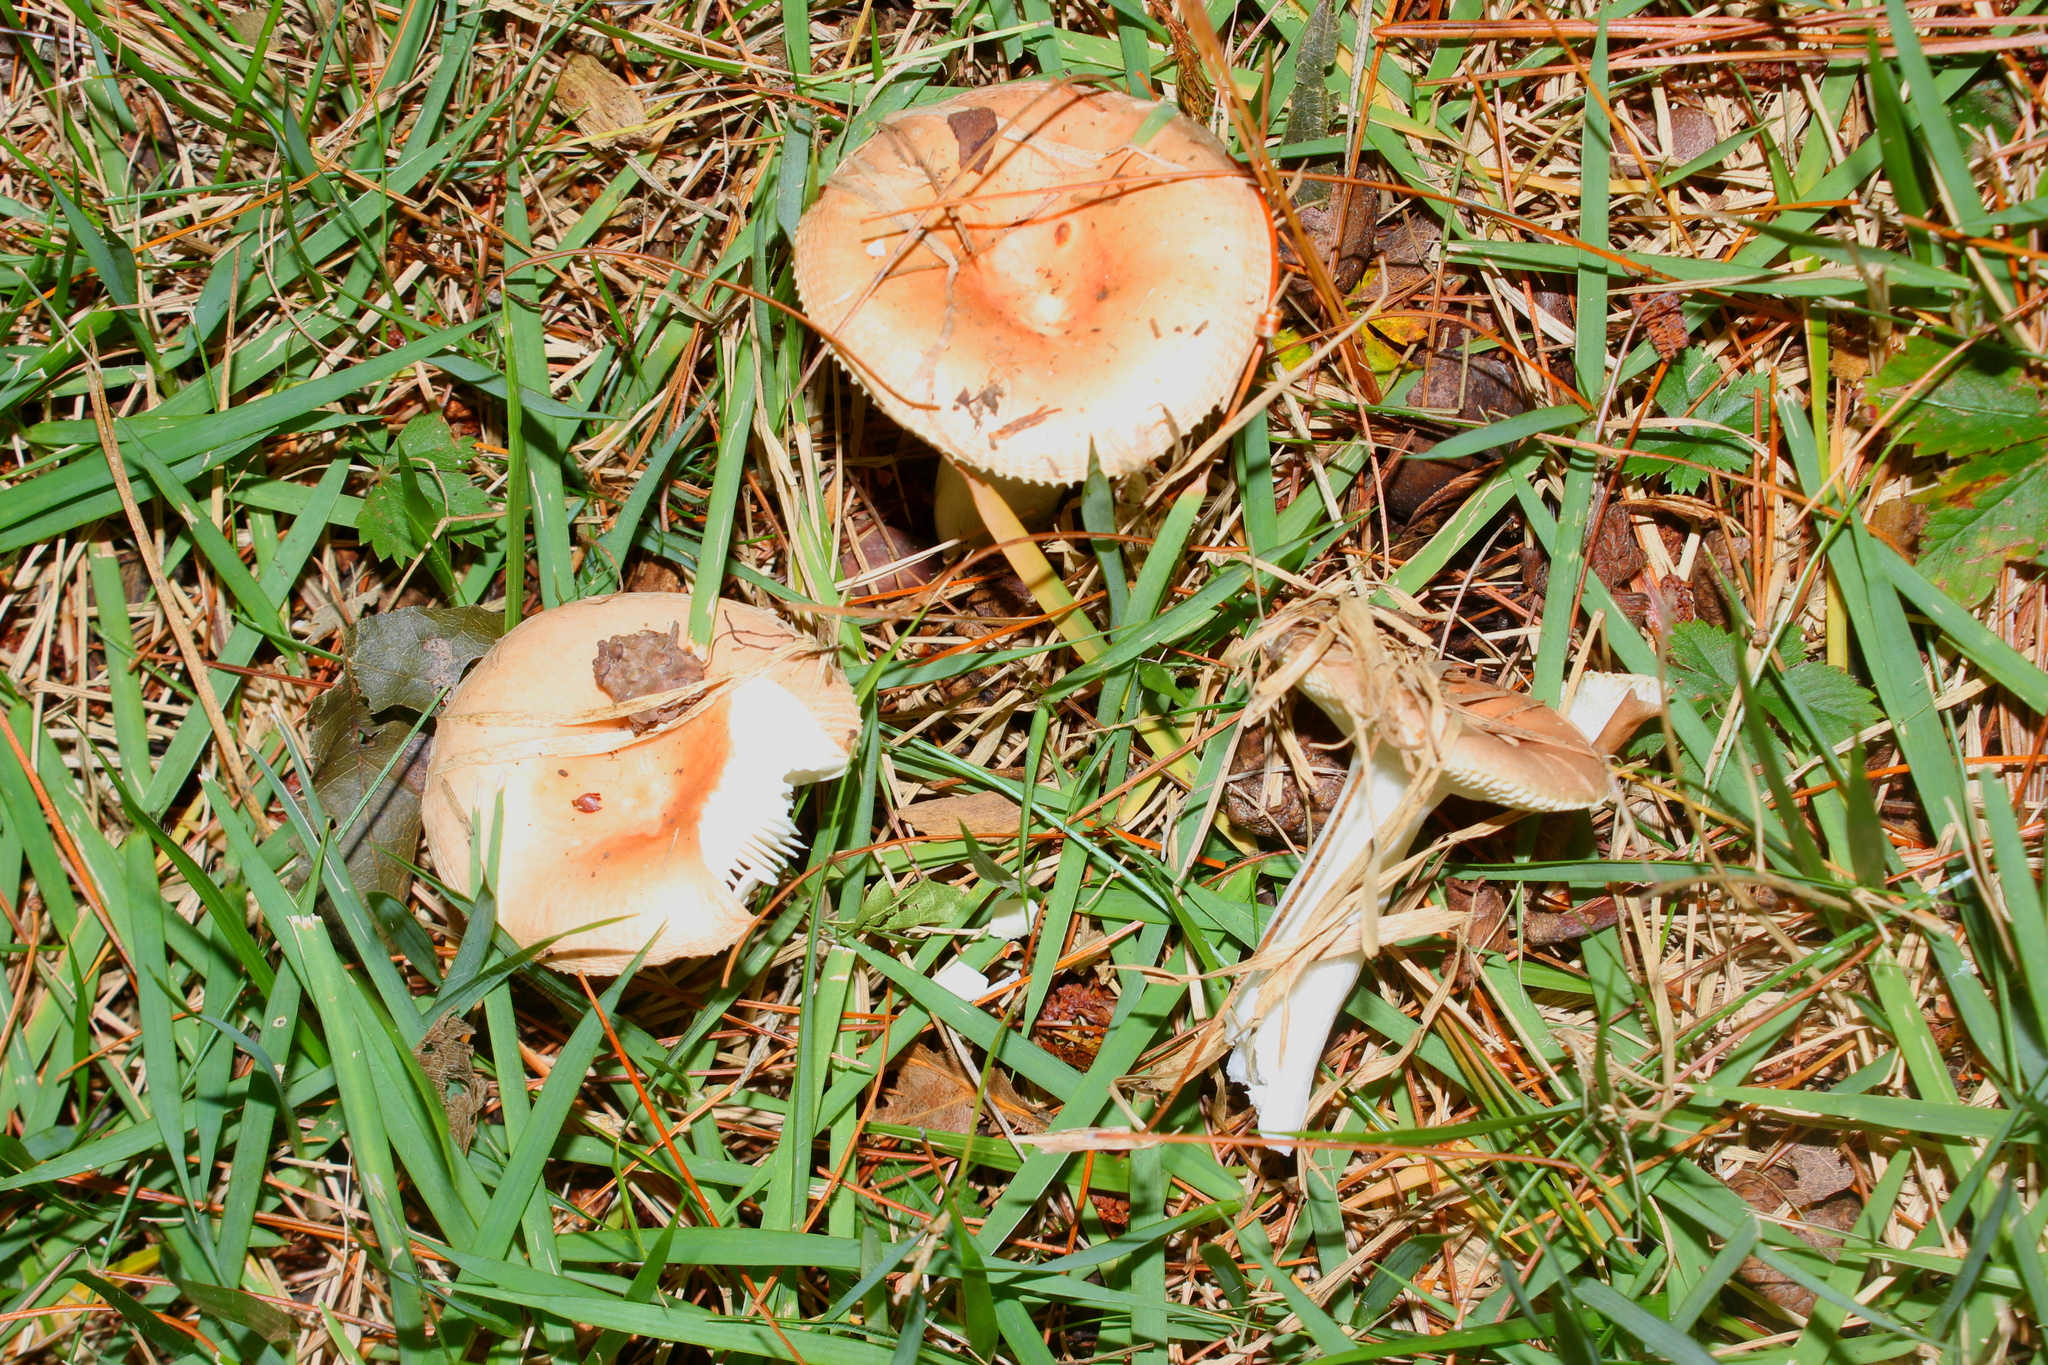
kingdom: Fungi
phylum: Basidiomycota
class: Agaricomycetes
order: Russulales
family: Russulaceae
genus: Russula
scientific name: Russula stricta
